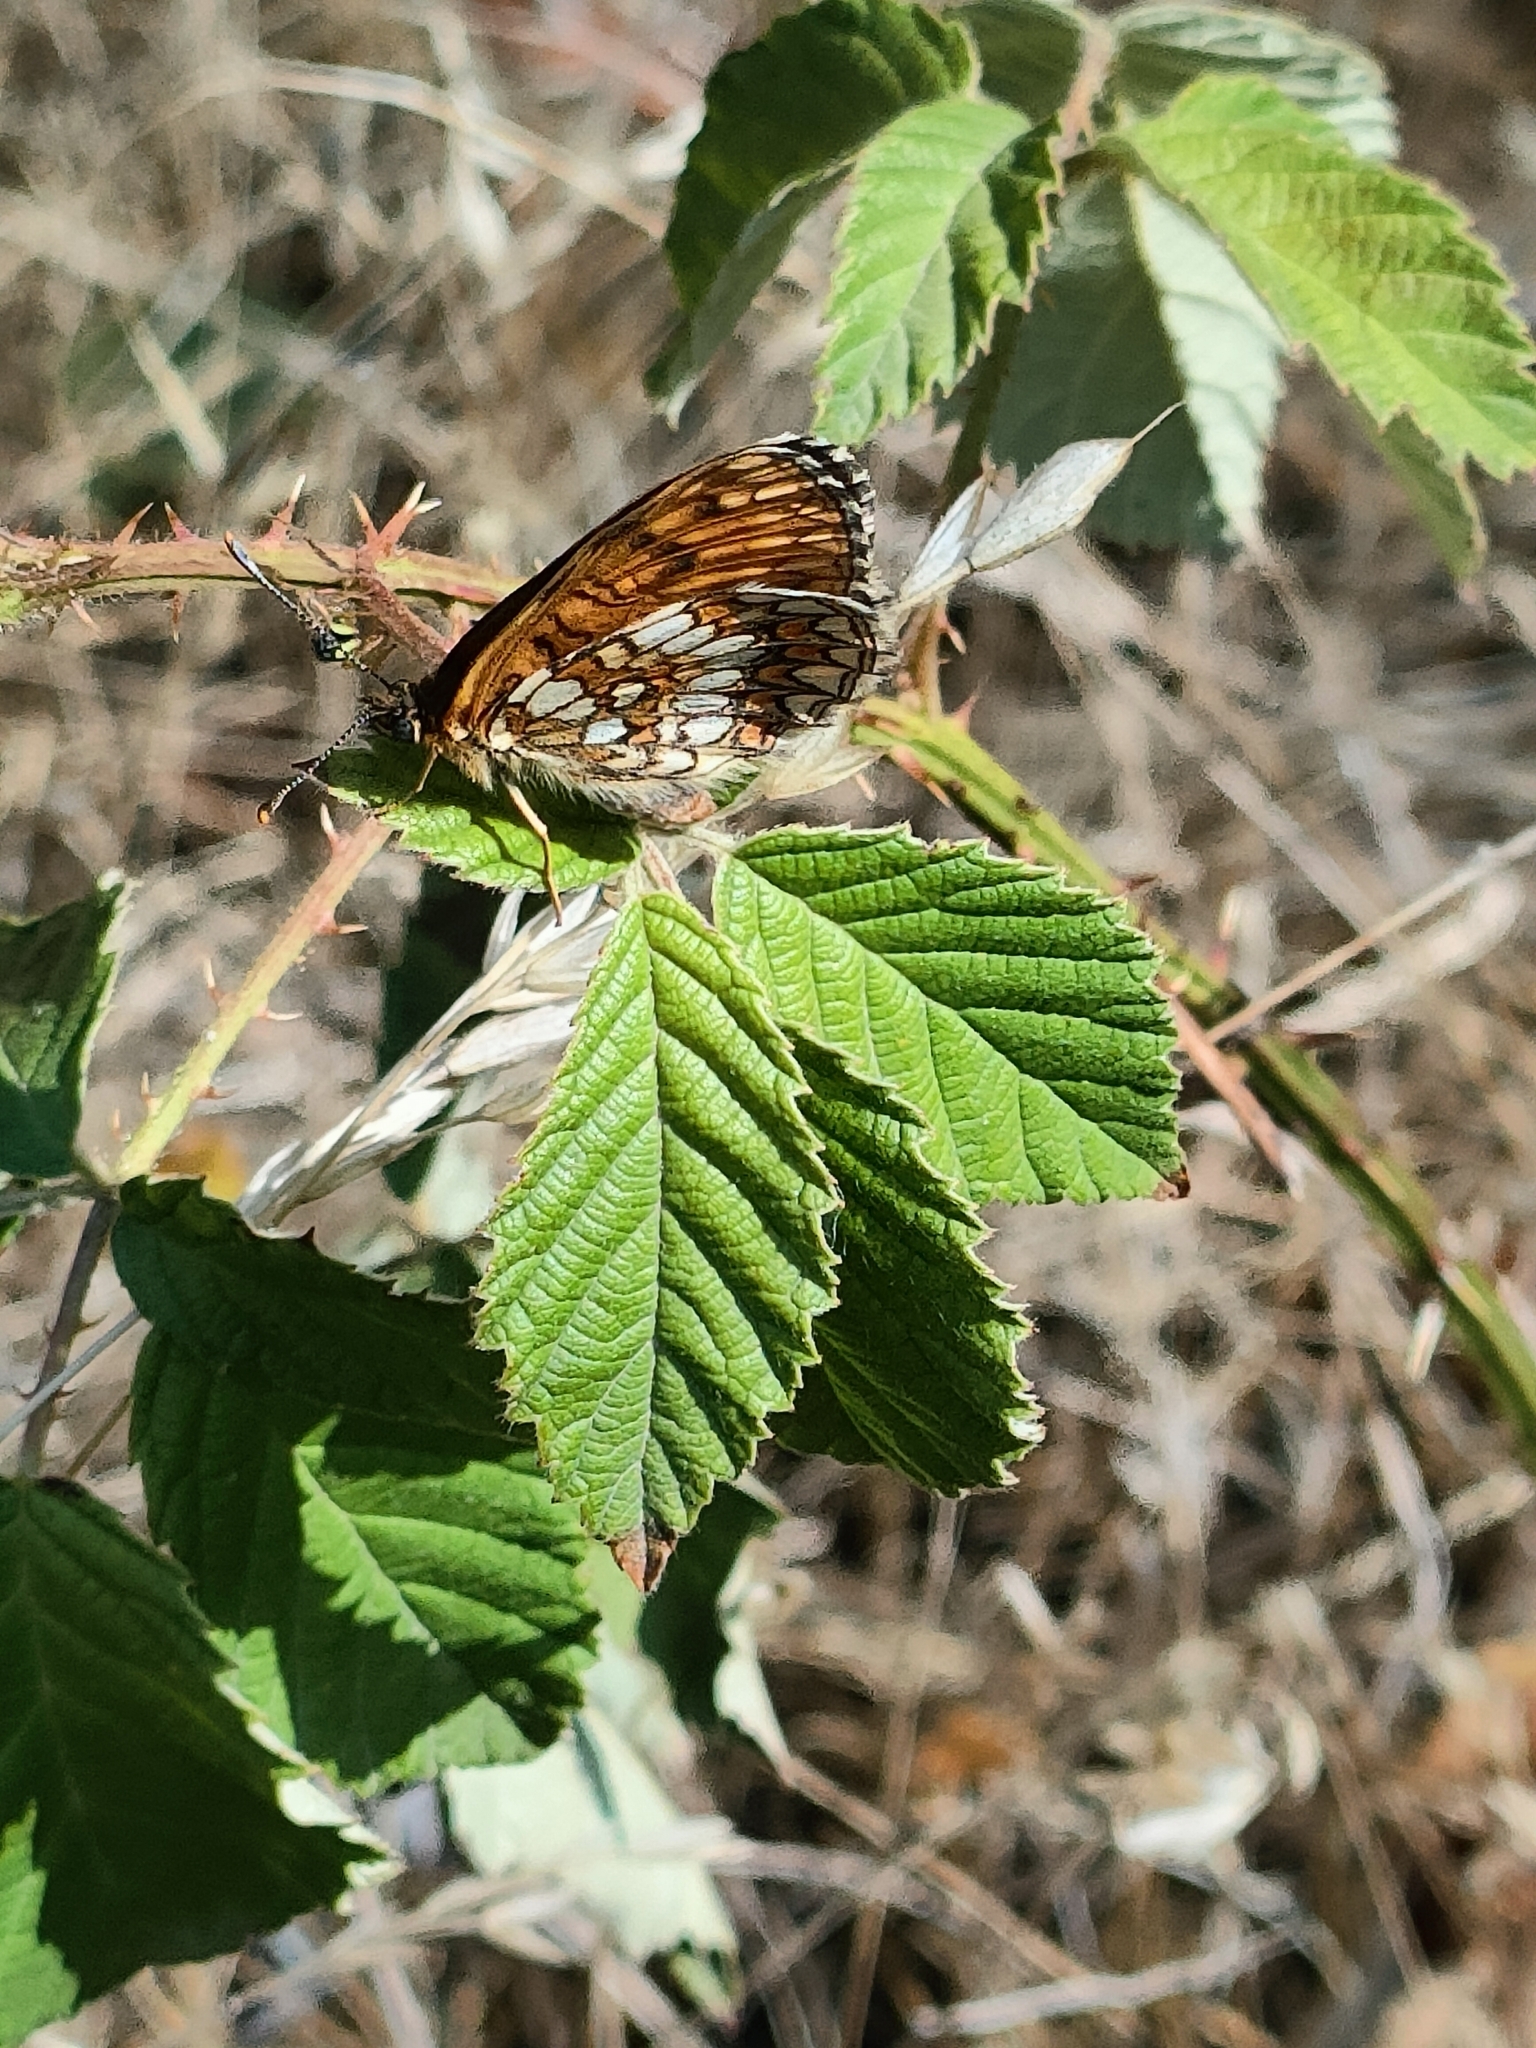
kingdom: Animalia
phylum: Arthropoda
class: Insecta
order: Lepidoptera
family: Nymphalidae
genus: Mellicta
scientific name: Mellicta athalia
